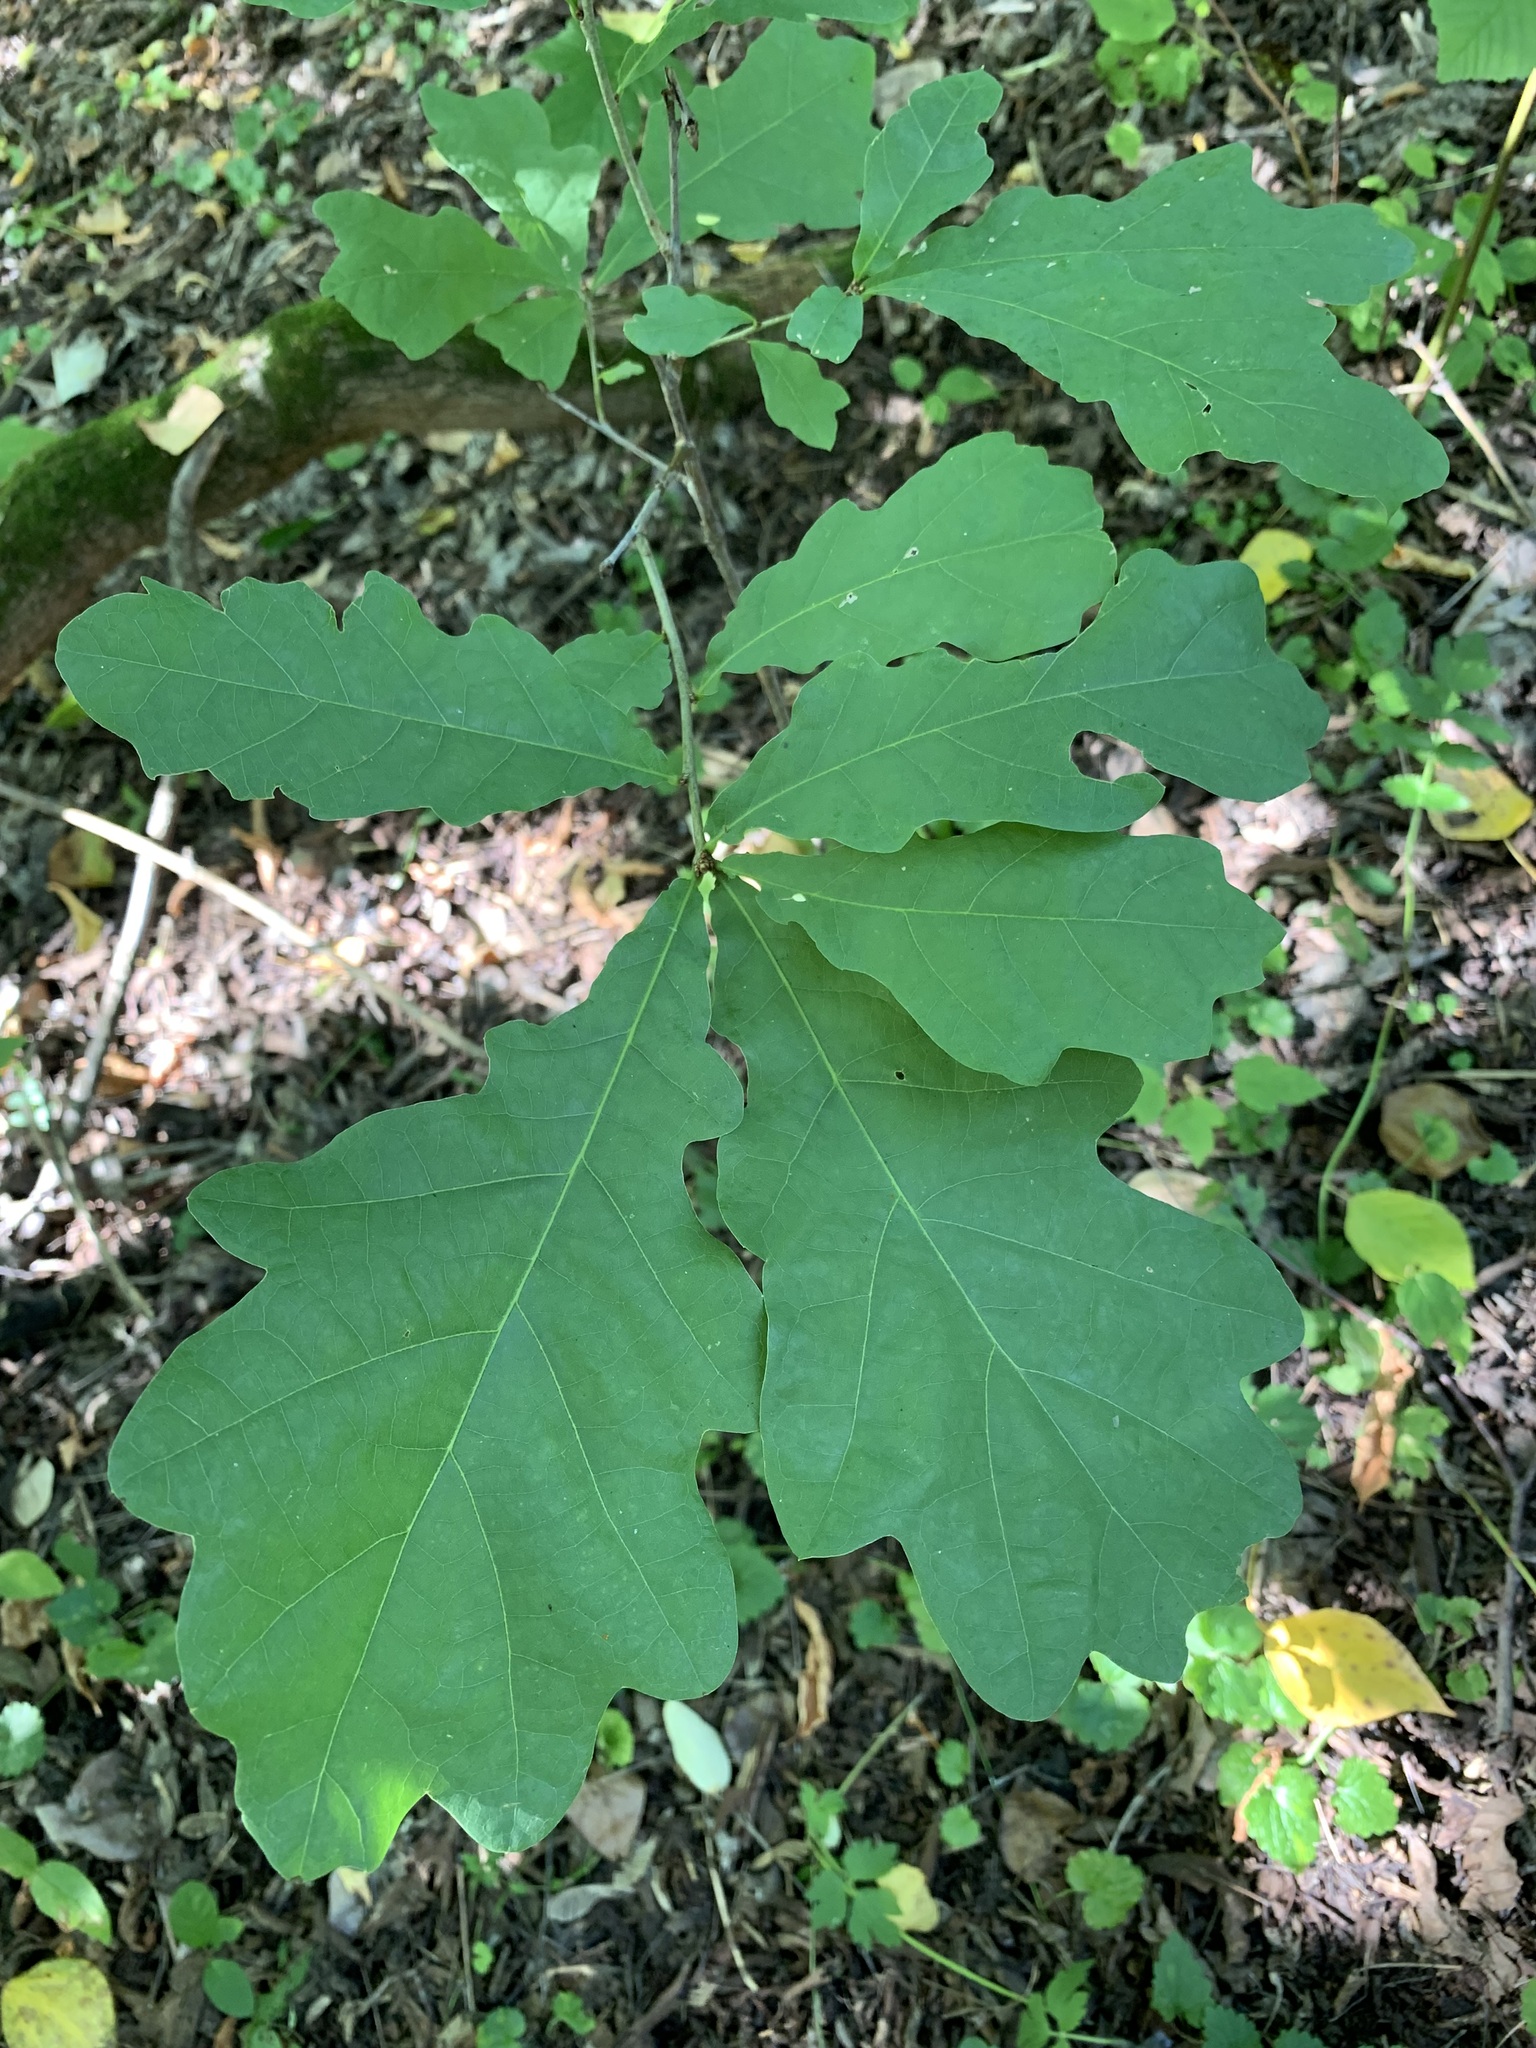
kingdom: Plantae
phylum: Tracheophyta
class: Magnoliopsida
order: Fagales
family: Fagaceae
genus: Quercus
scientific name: Quercus robur
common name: Pedunculate oak
